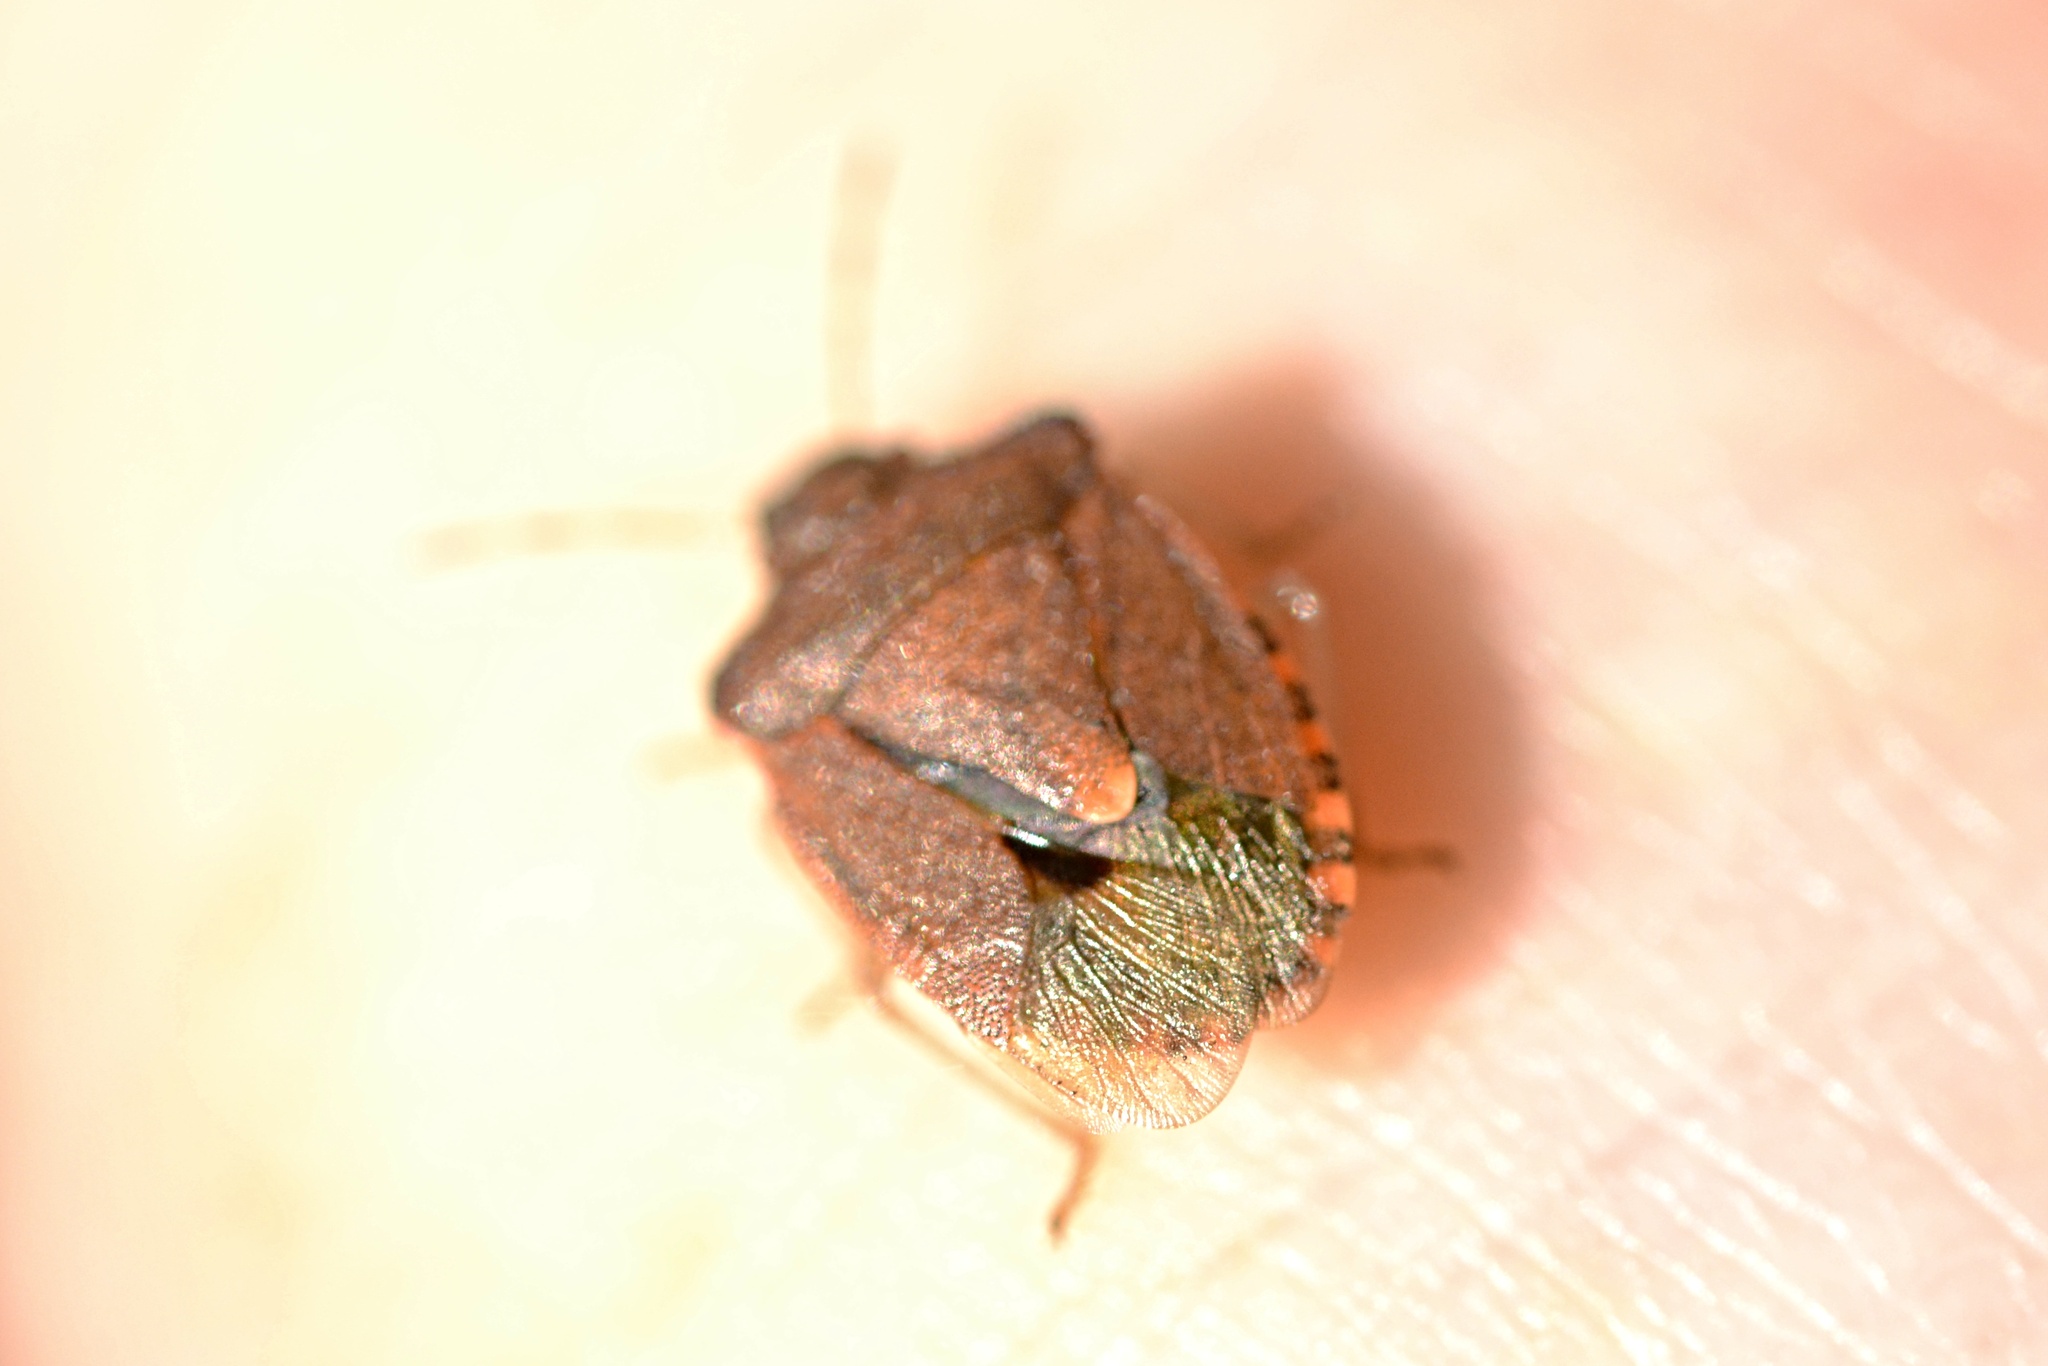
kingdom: Animalia
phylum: Arthropoda
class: Insecta
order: Hemiptera
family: Pentatomidae
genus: Holcostethus
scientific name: Holcostethus strictus
